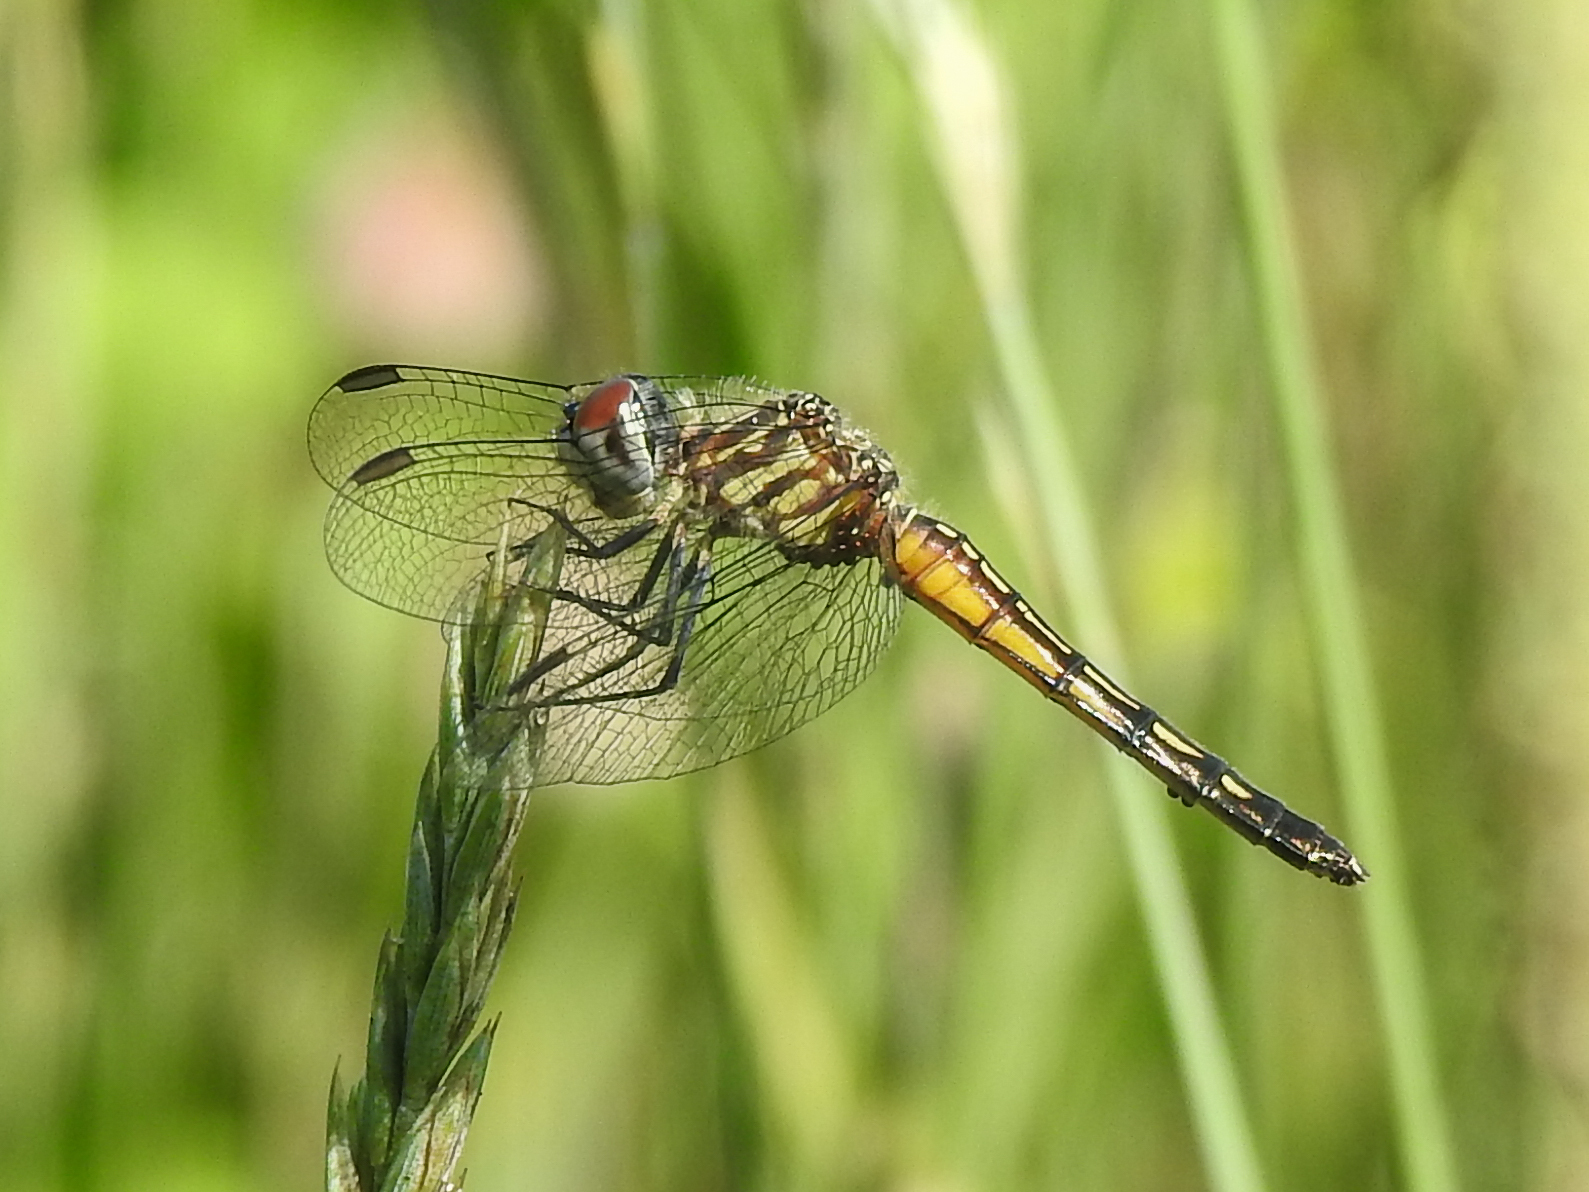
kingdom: Animalia
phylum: Arthropoda
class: Insecta
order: Odonata
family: Libellulidae
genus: Pachydiplax
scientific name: Pachydiplax longipennis
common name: Blue dasher
